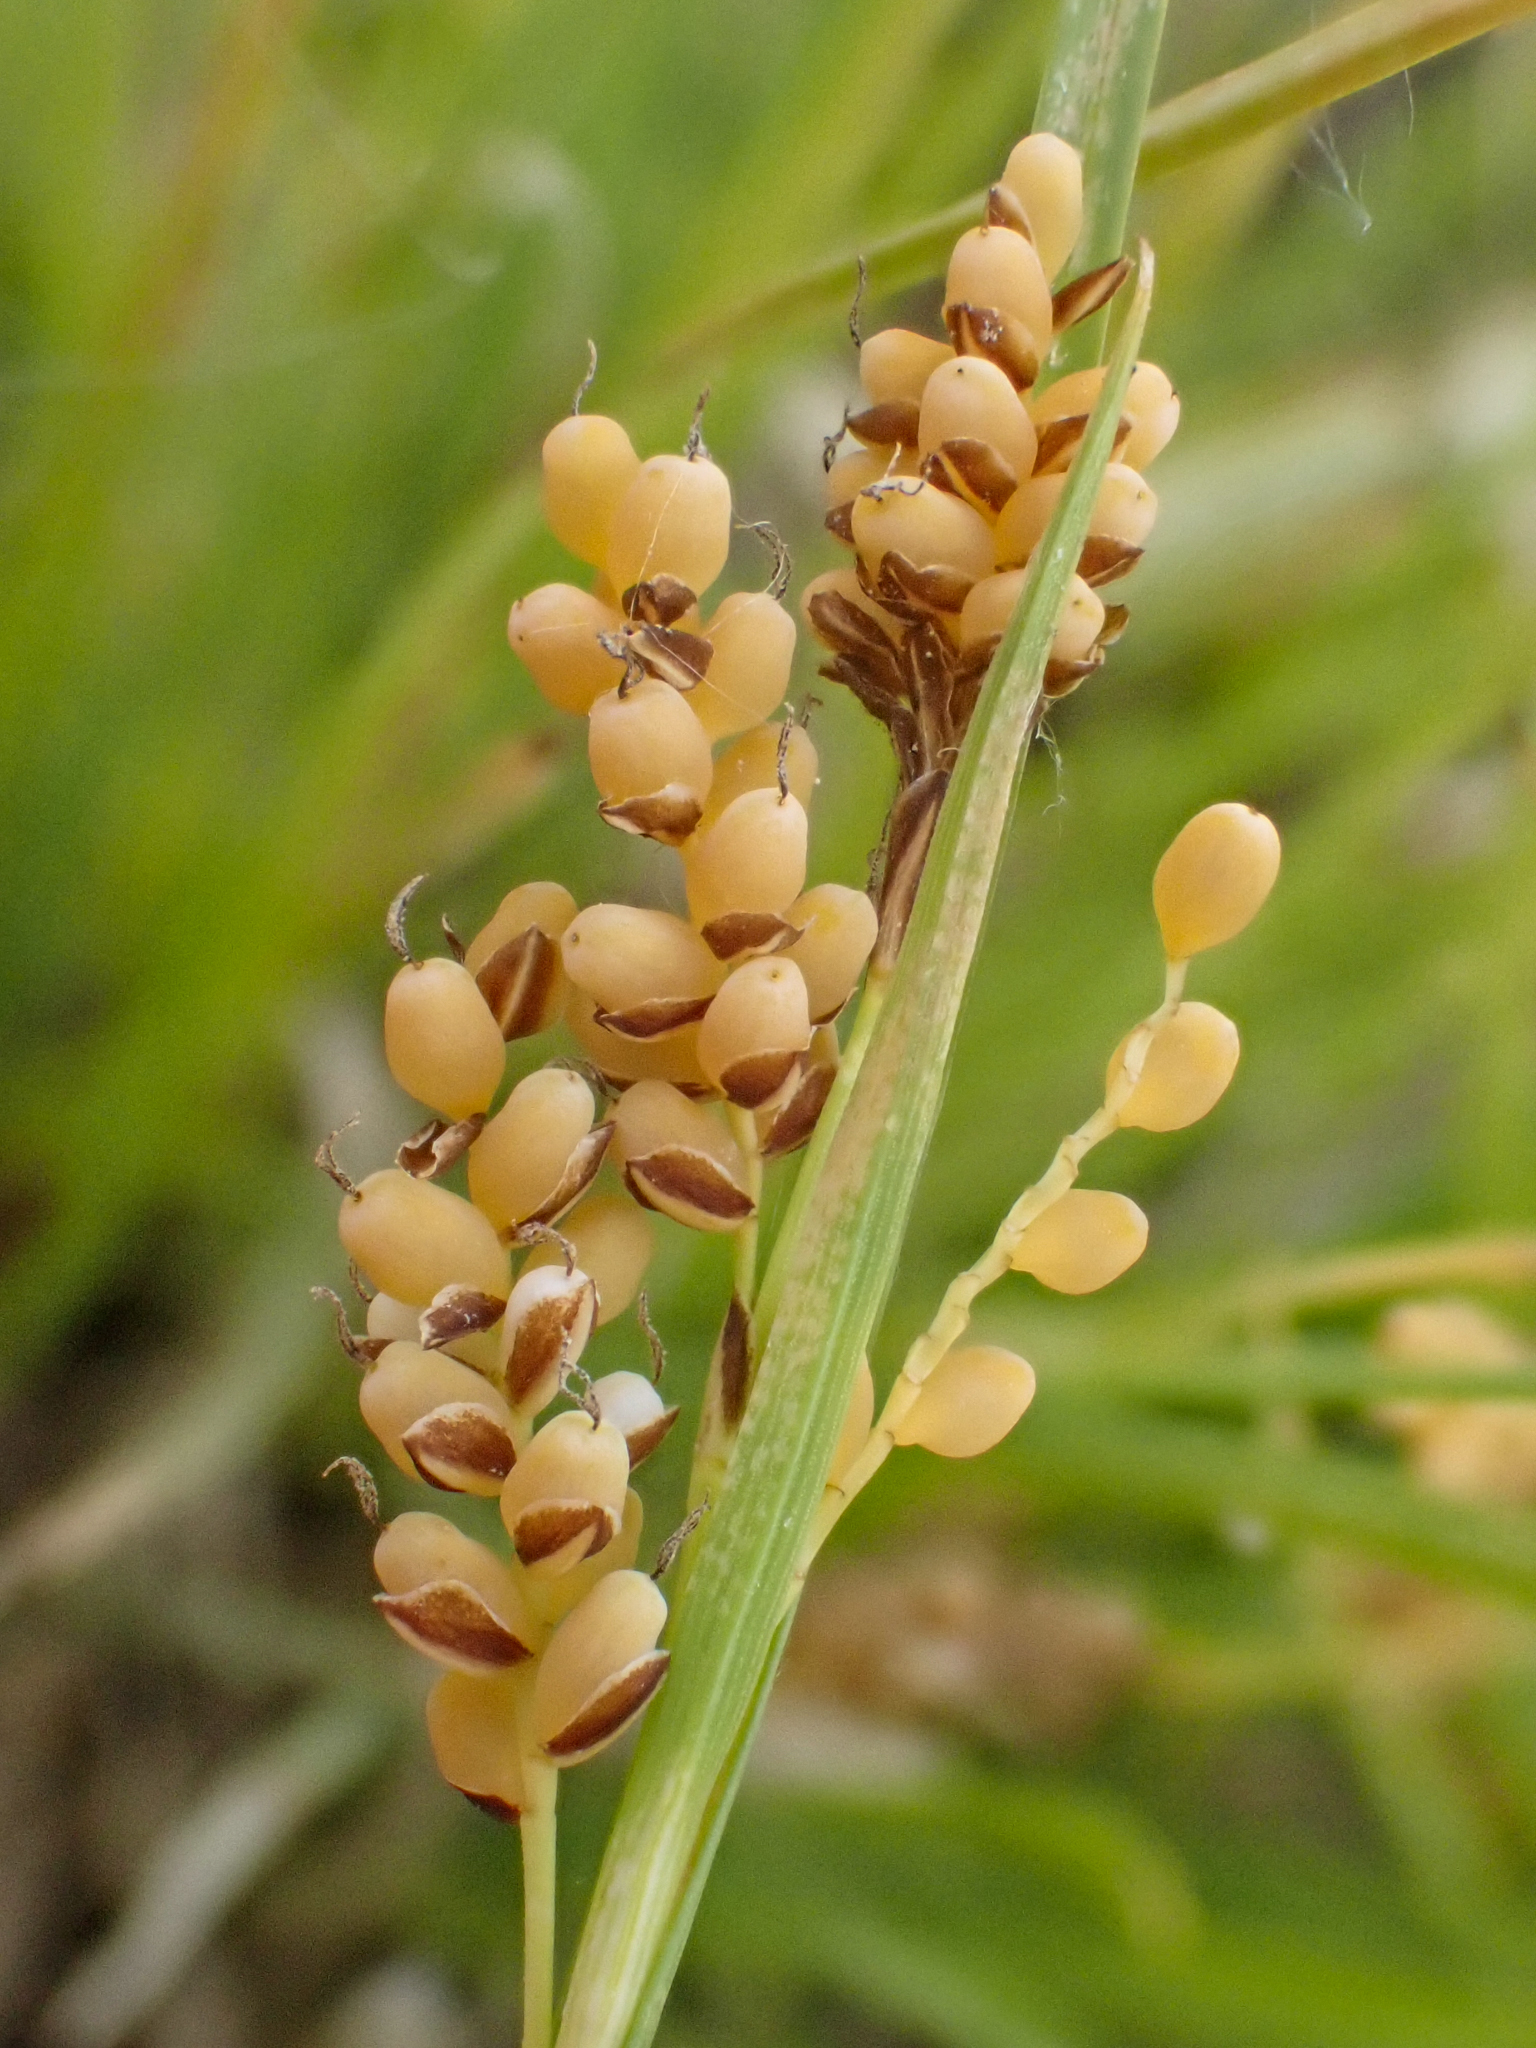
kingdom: Plantae
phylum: Tracheophyta
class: Liliopsida
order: Poales
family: Cyperaceae
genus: Carex
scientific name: Carex aurea
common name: Golden sedge
